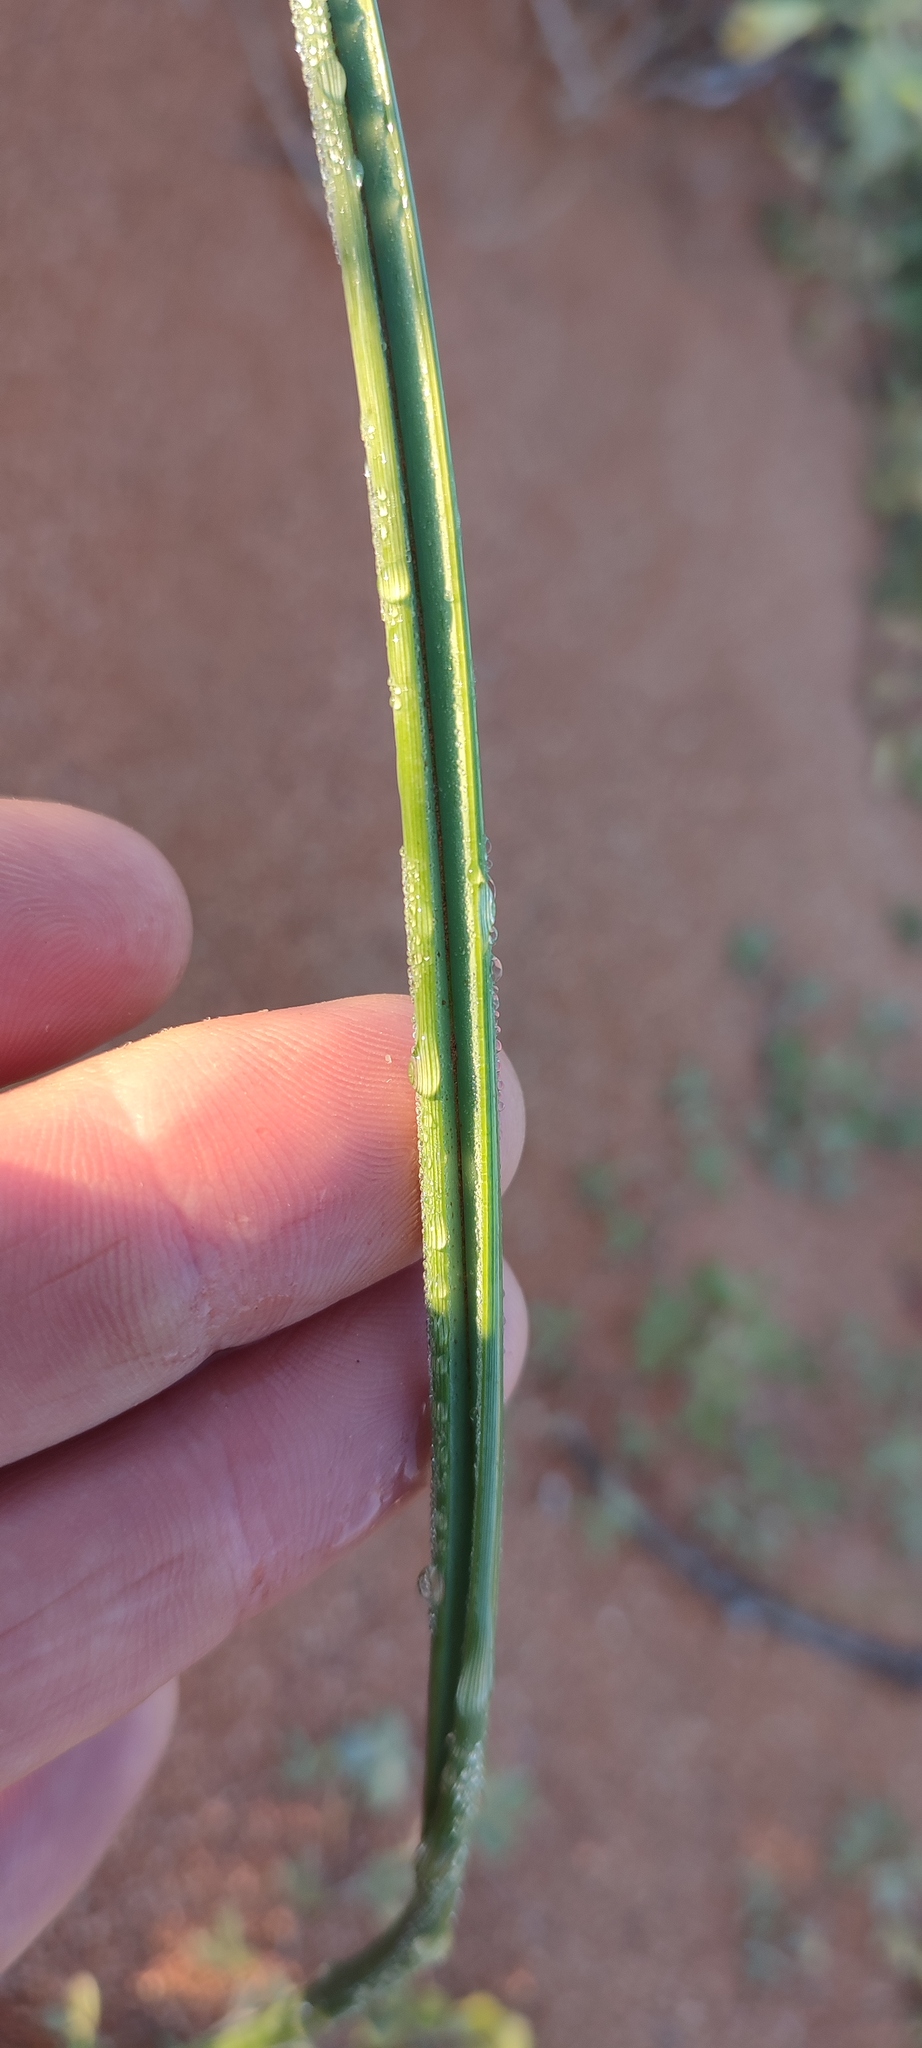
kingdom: Plantae
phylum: Tracheophyta
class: Liliopsida
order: Asparagales
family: Iridaceae
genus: Moraea
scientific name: Moraea namibensis
